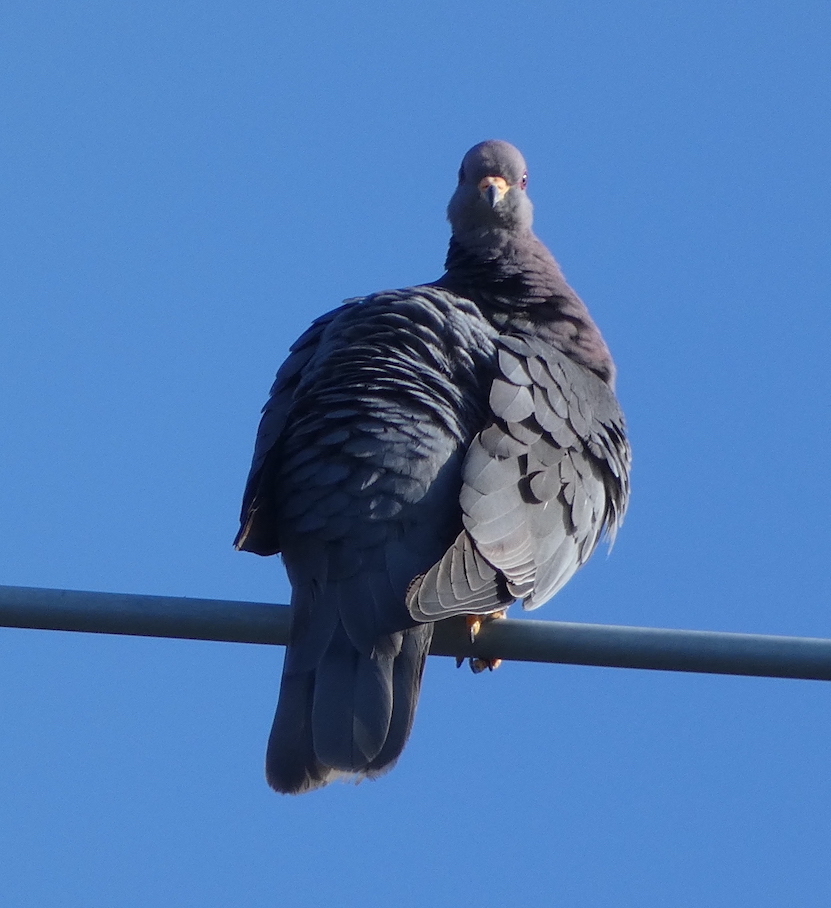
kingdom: Animalia
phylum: Chordata
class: Aves
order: Columbiformes
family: Columbidae
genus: Patagioenas
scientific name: Patagioenas fasciata
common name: Band-tailed pigeon
